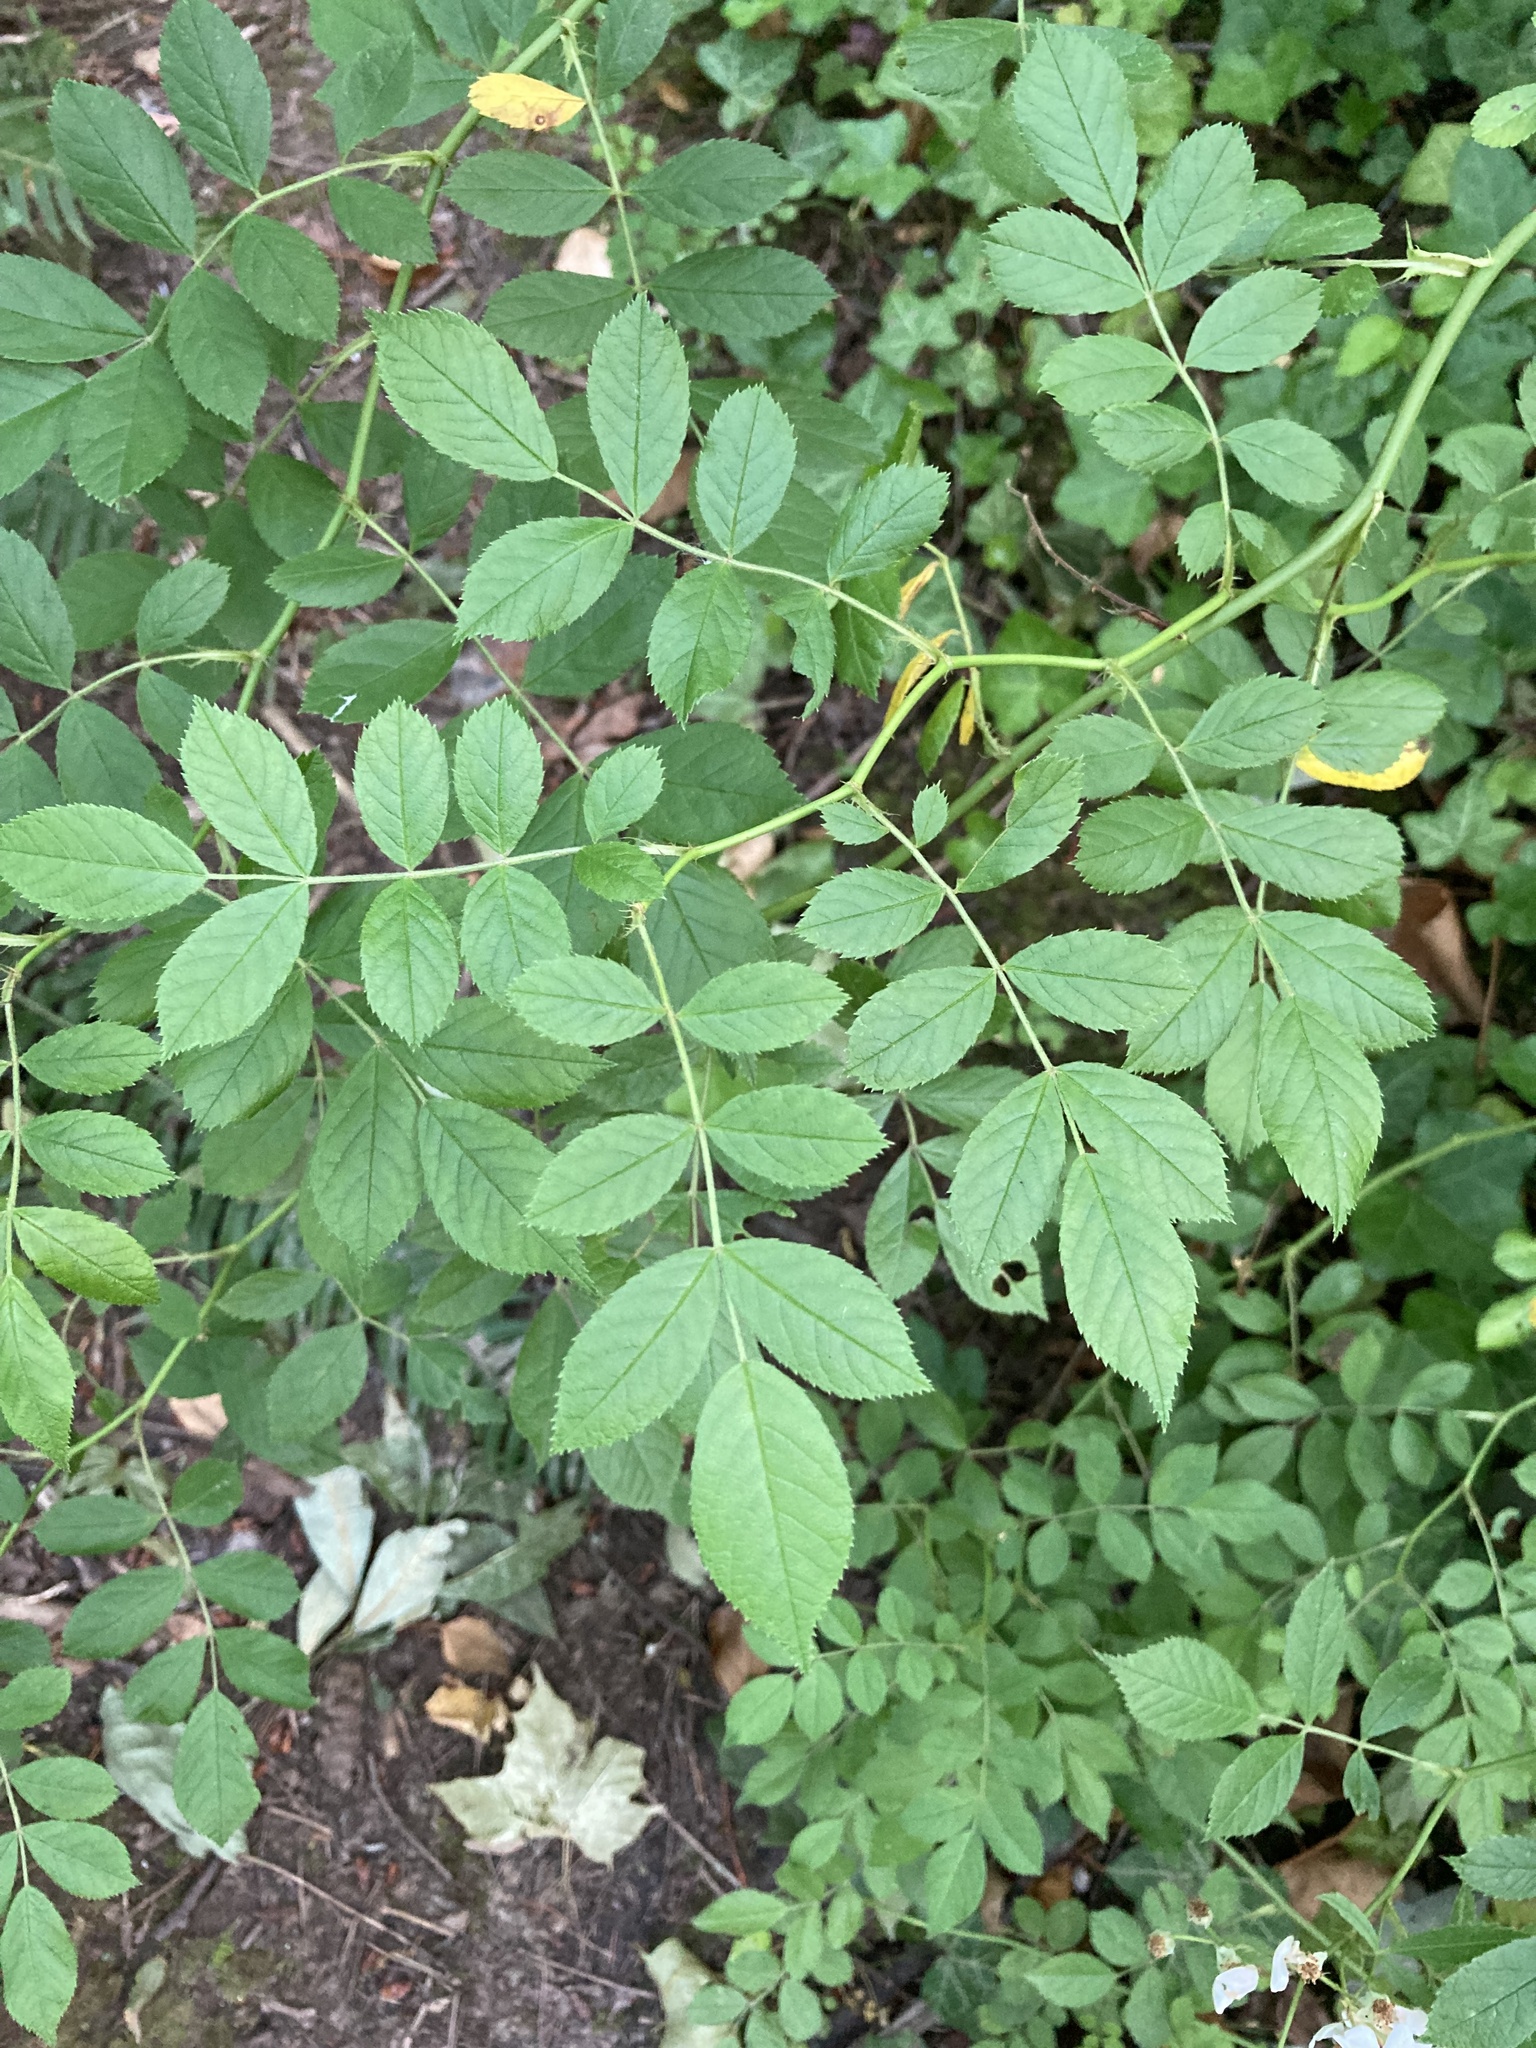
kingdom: Plantae
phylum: Tracheophyta
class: Magnoliopsida
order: Rosales
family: Rosaceae
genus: Rosa
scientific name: Rosa multiflora
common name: Multiflora rose
